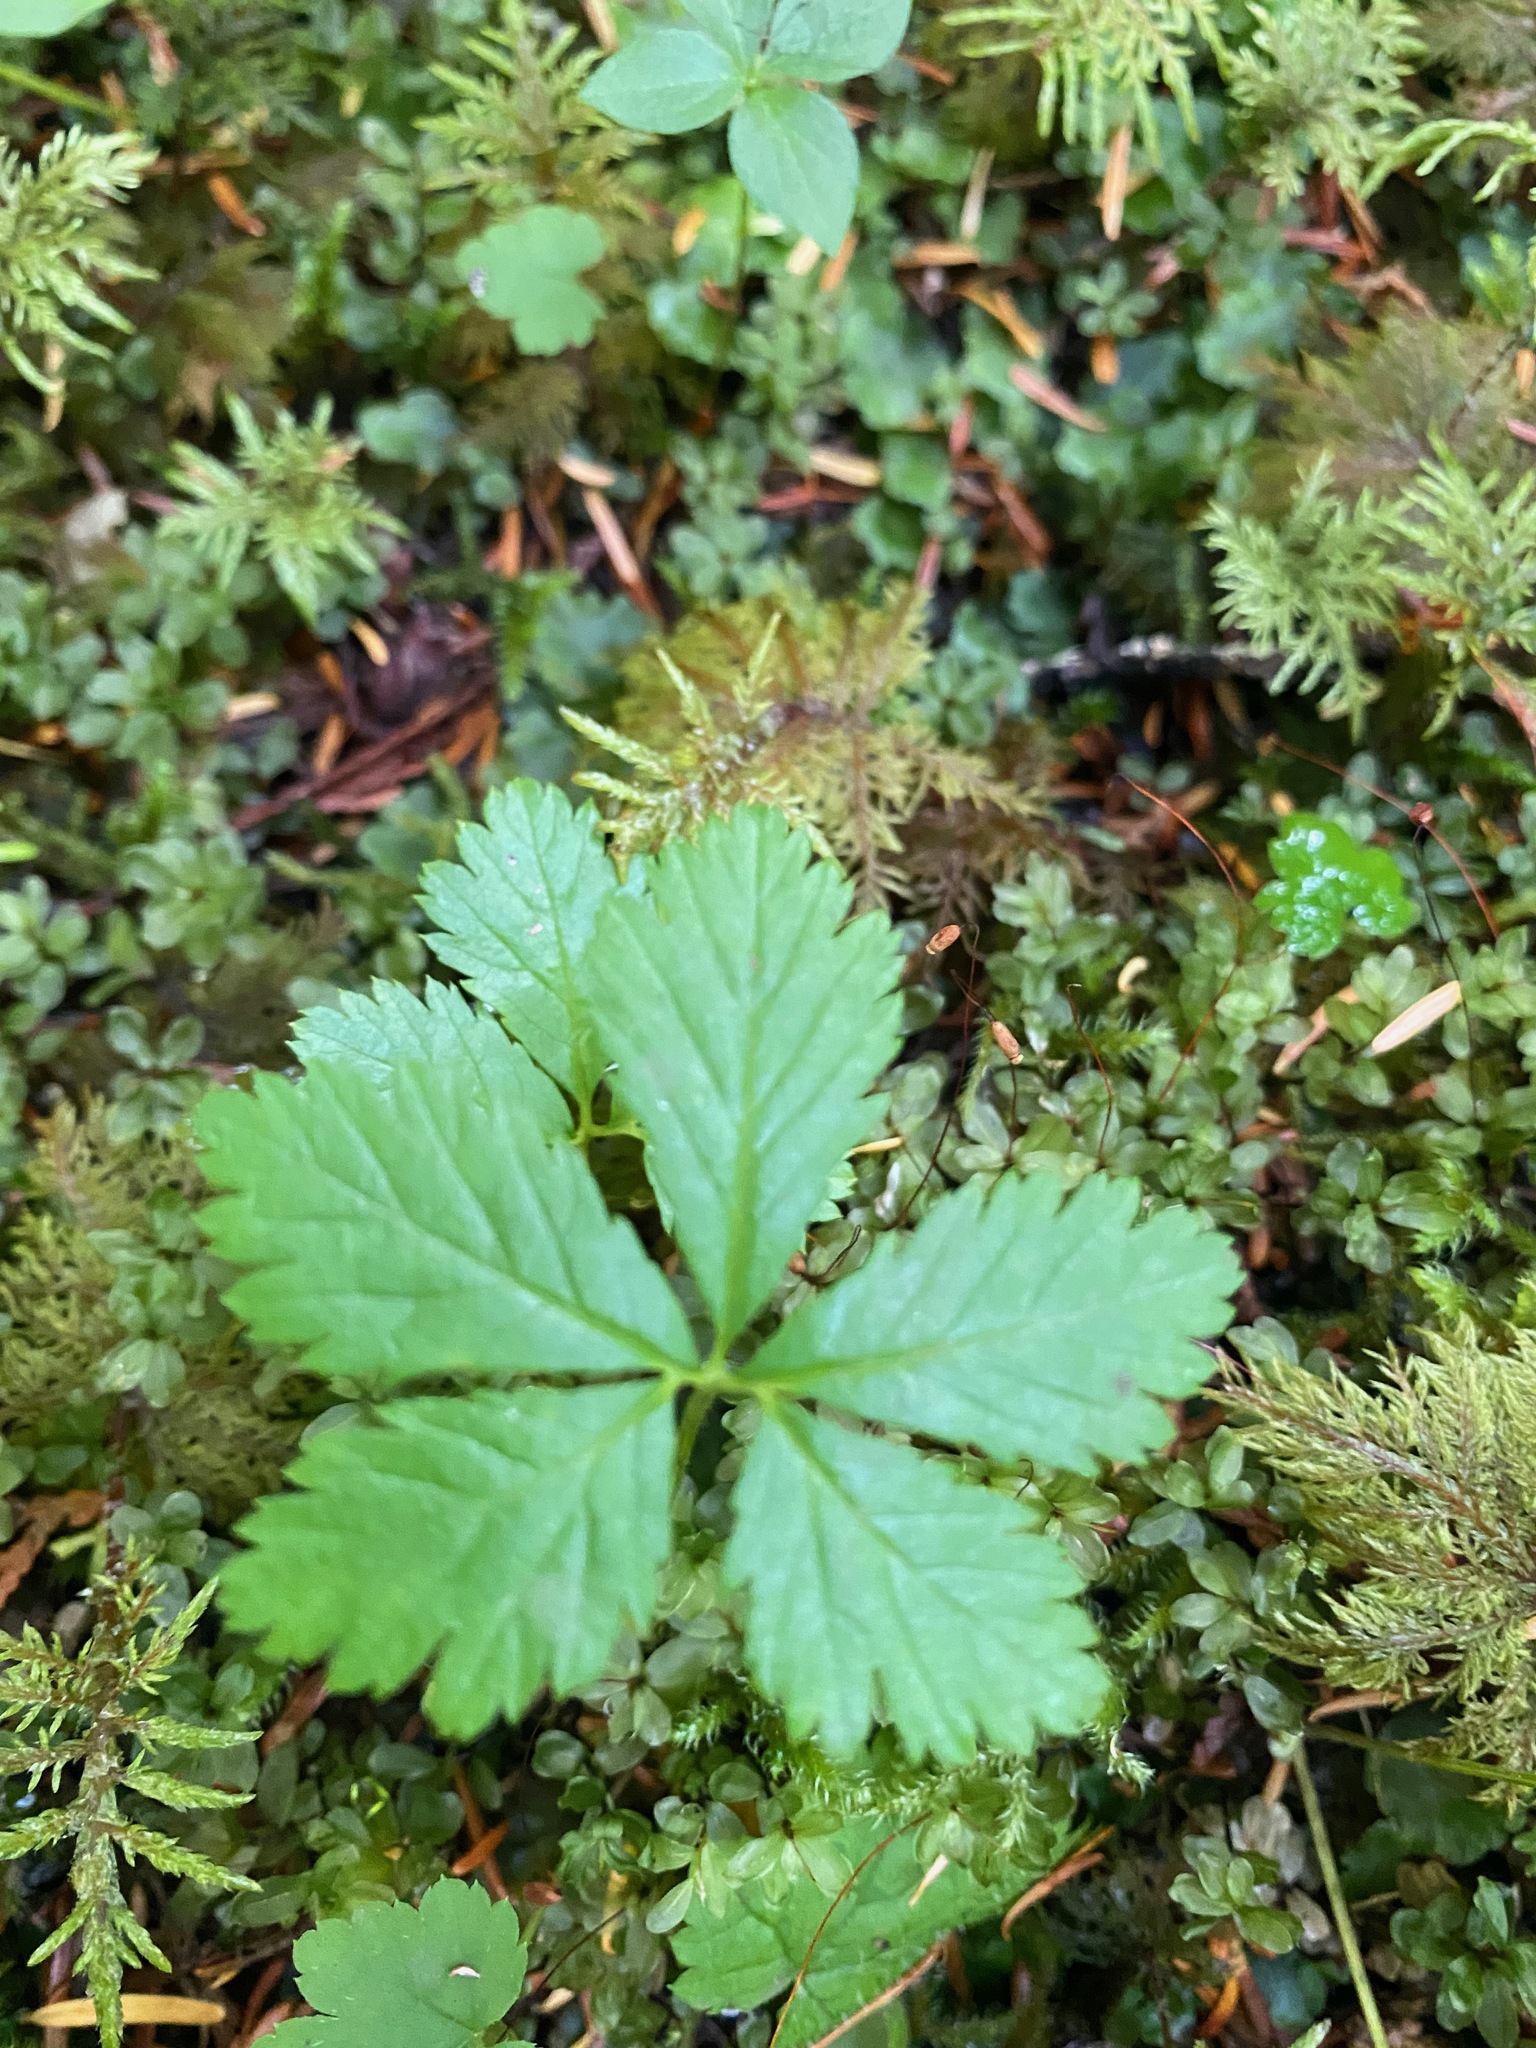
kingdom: Plantae
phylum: Tracheophyta
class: Magnoliopsida
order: Rosales
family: Rosaceae
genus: Rubus
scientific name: Rubus pedatus
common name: Creeping raspberry
